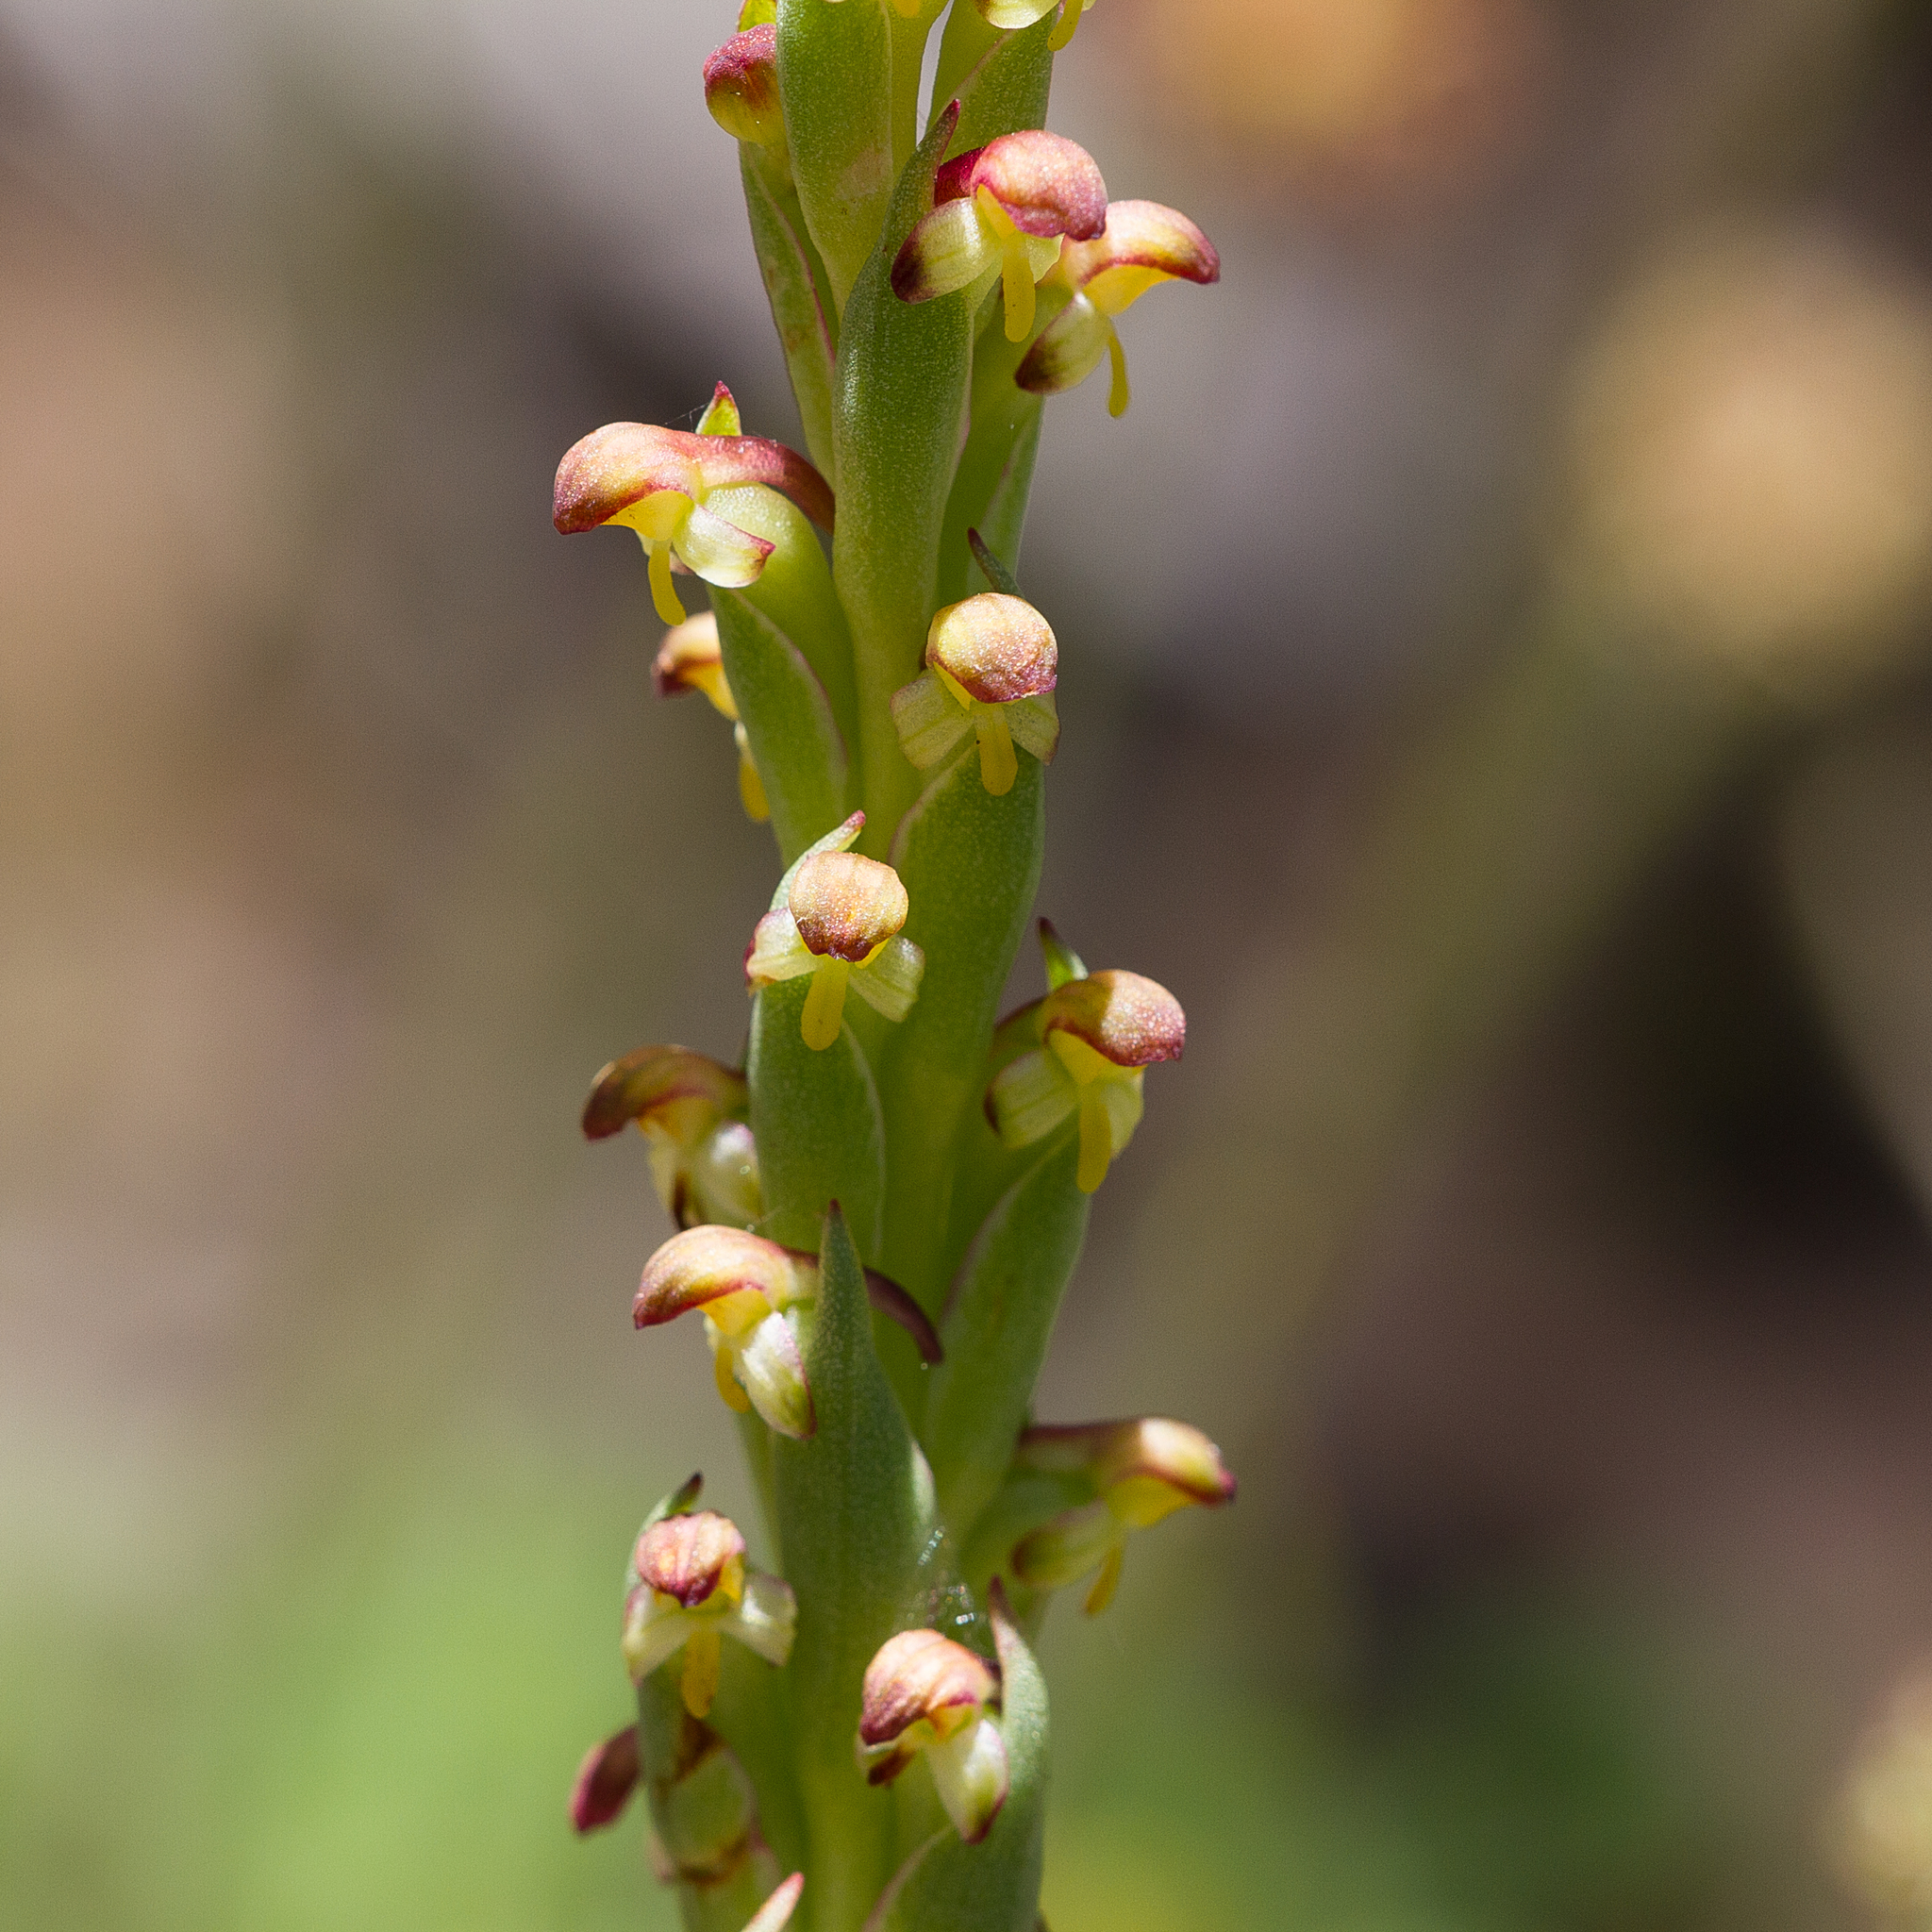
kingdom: Plantae
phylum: Tracheophyta
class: Liliopsida
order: Asparagales
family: Orchidaceae
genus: Disa
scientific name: Disa bracteata
